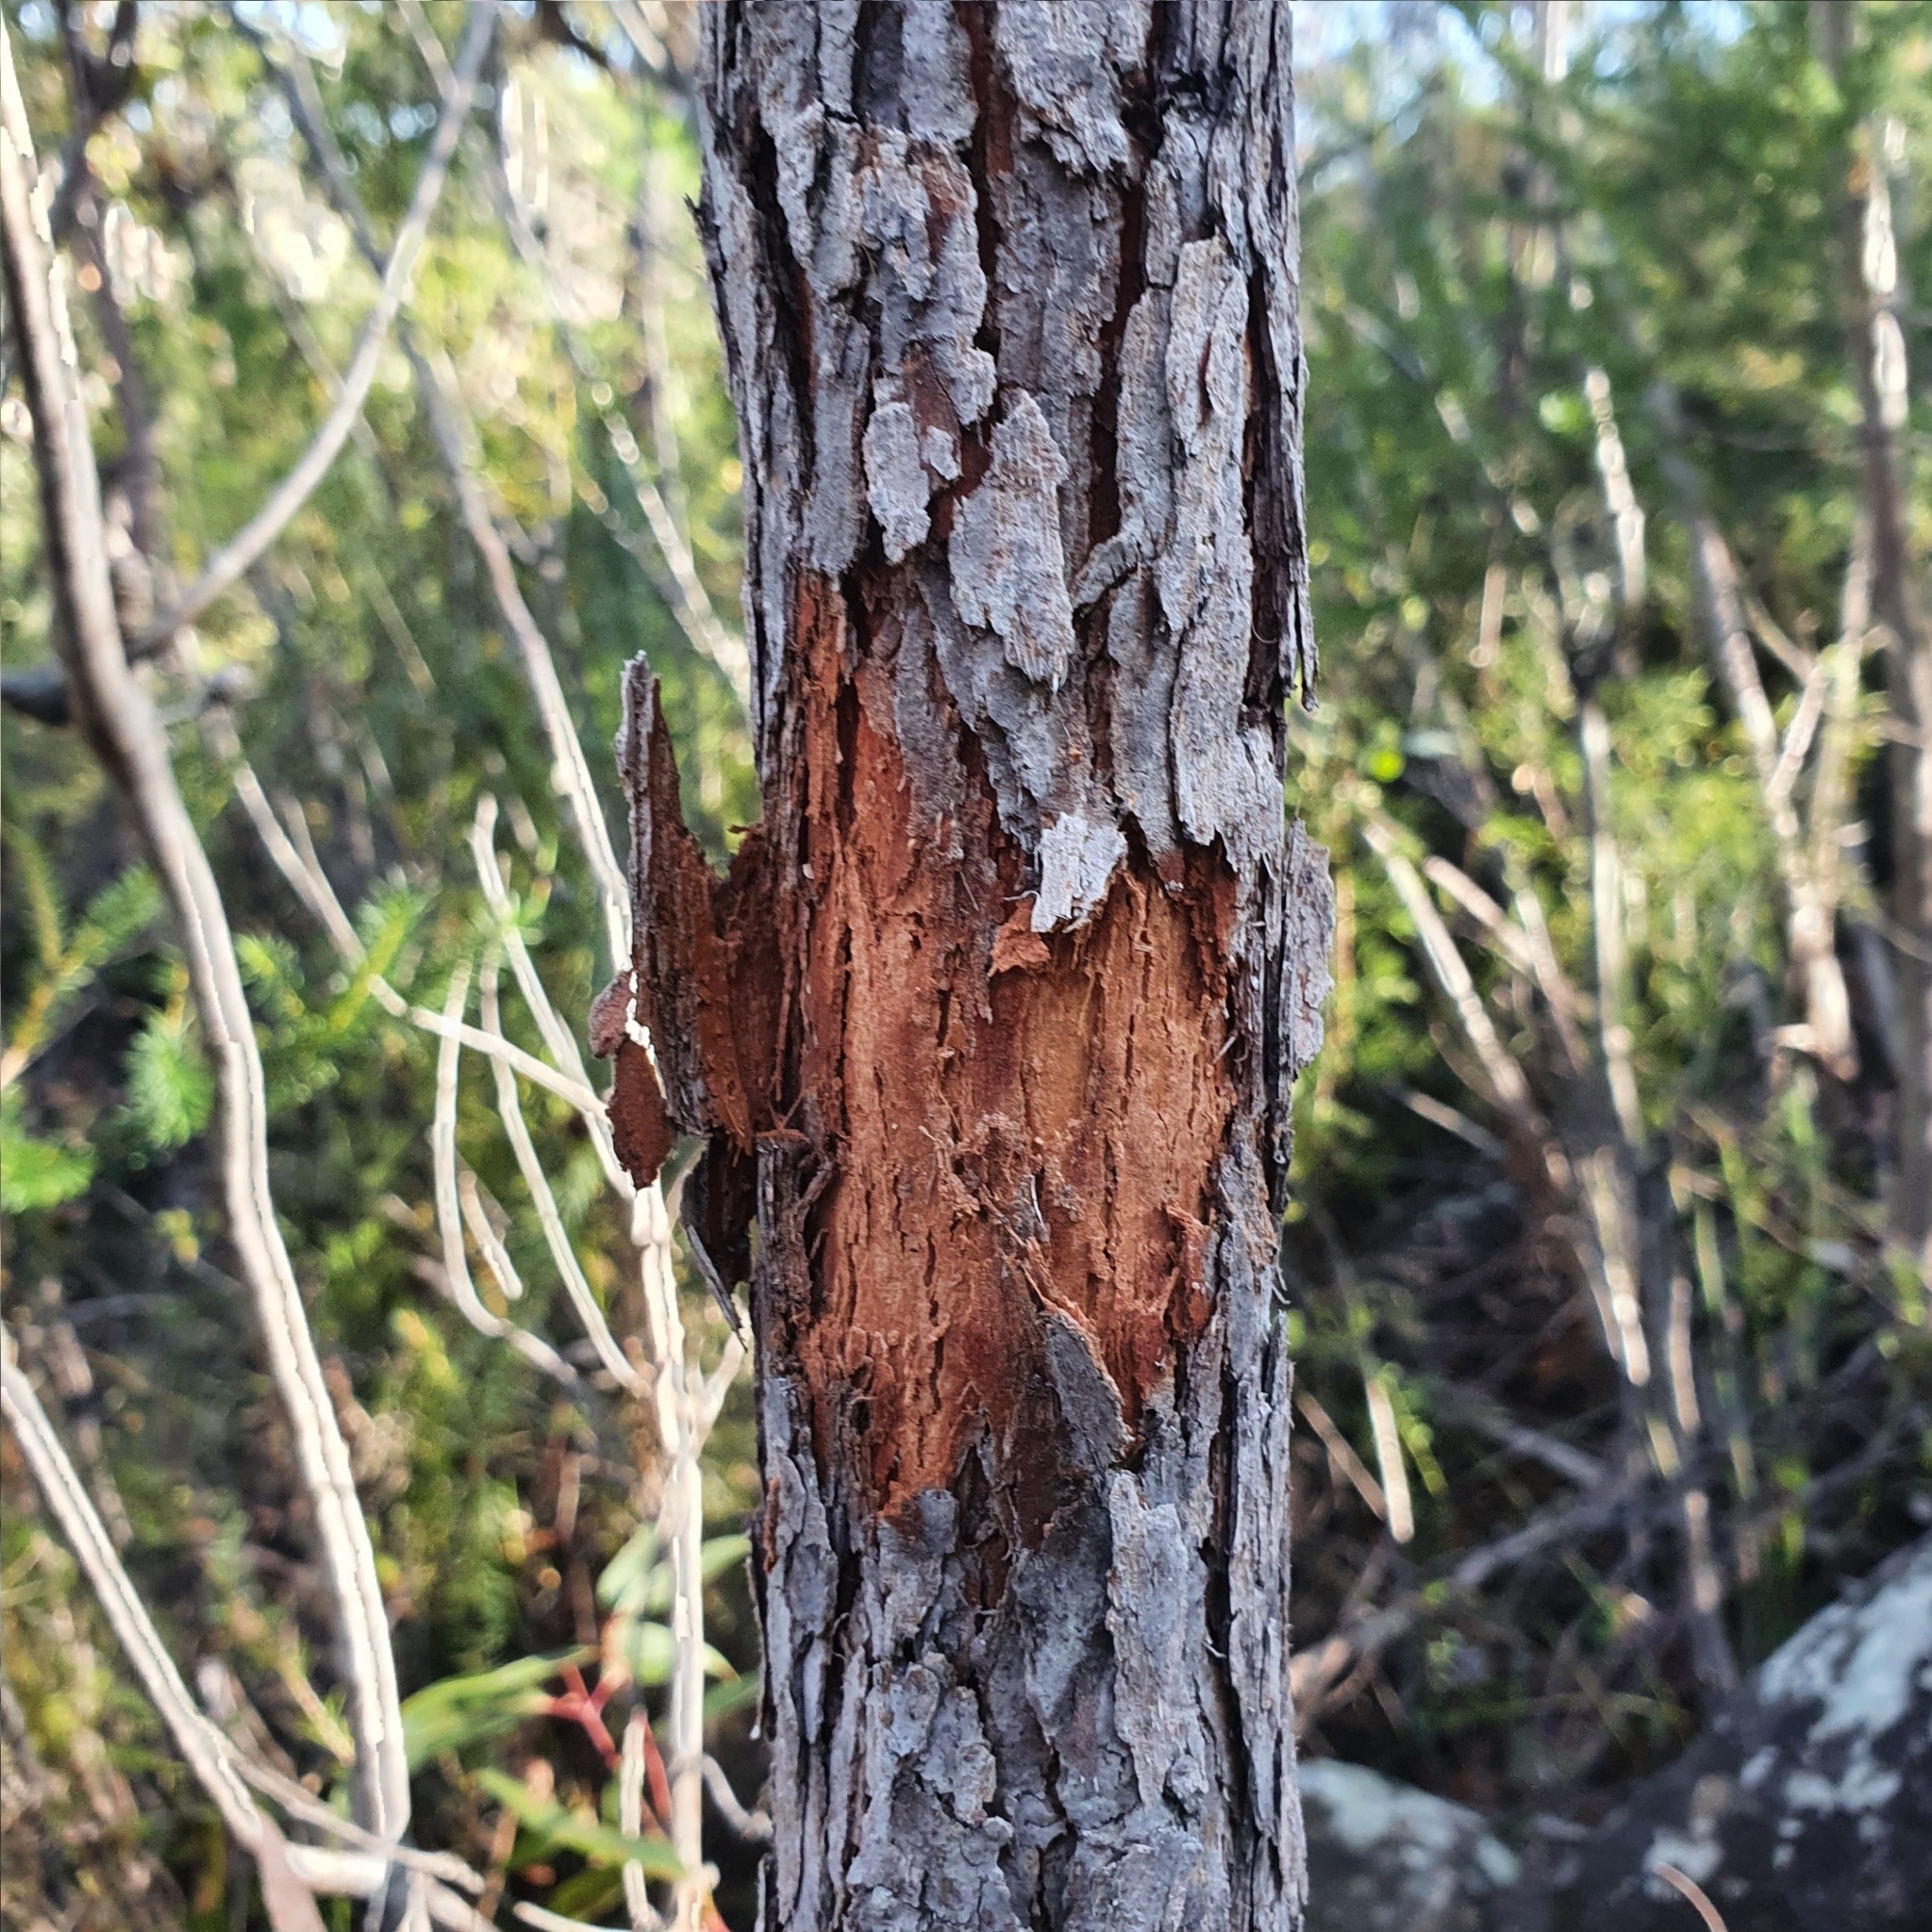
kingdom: Plantae
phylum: Tracheophyta
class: Magnoliopsida
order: Myrtales
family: Myrtaceae
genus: Corymbia
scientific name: Corymbia gummifera
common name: Red bloodwood
